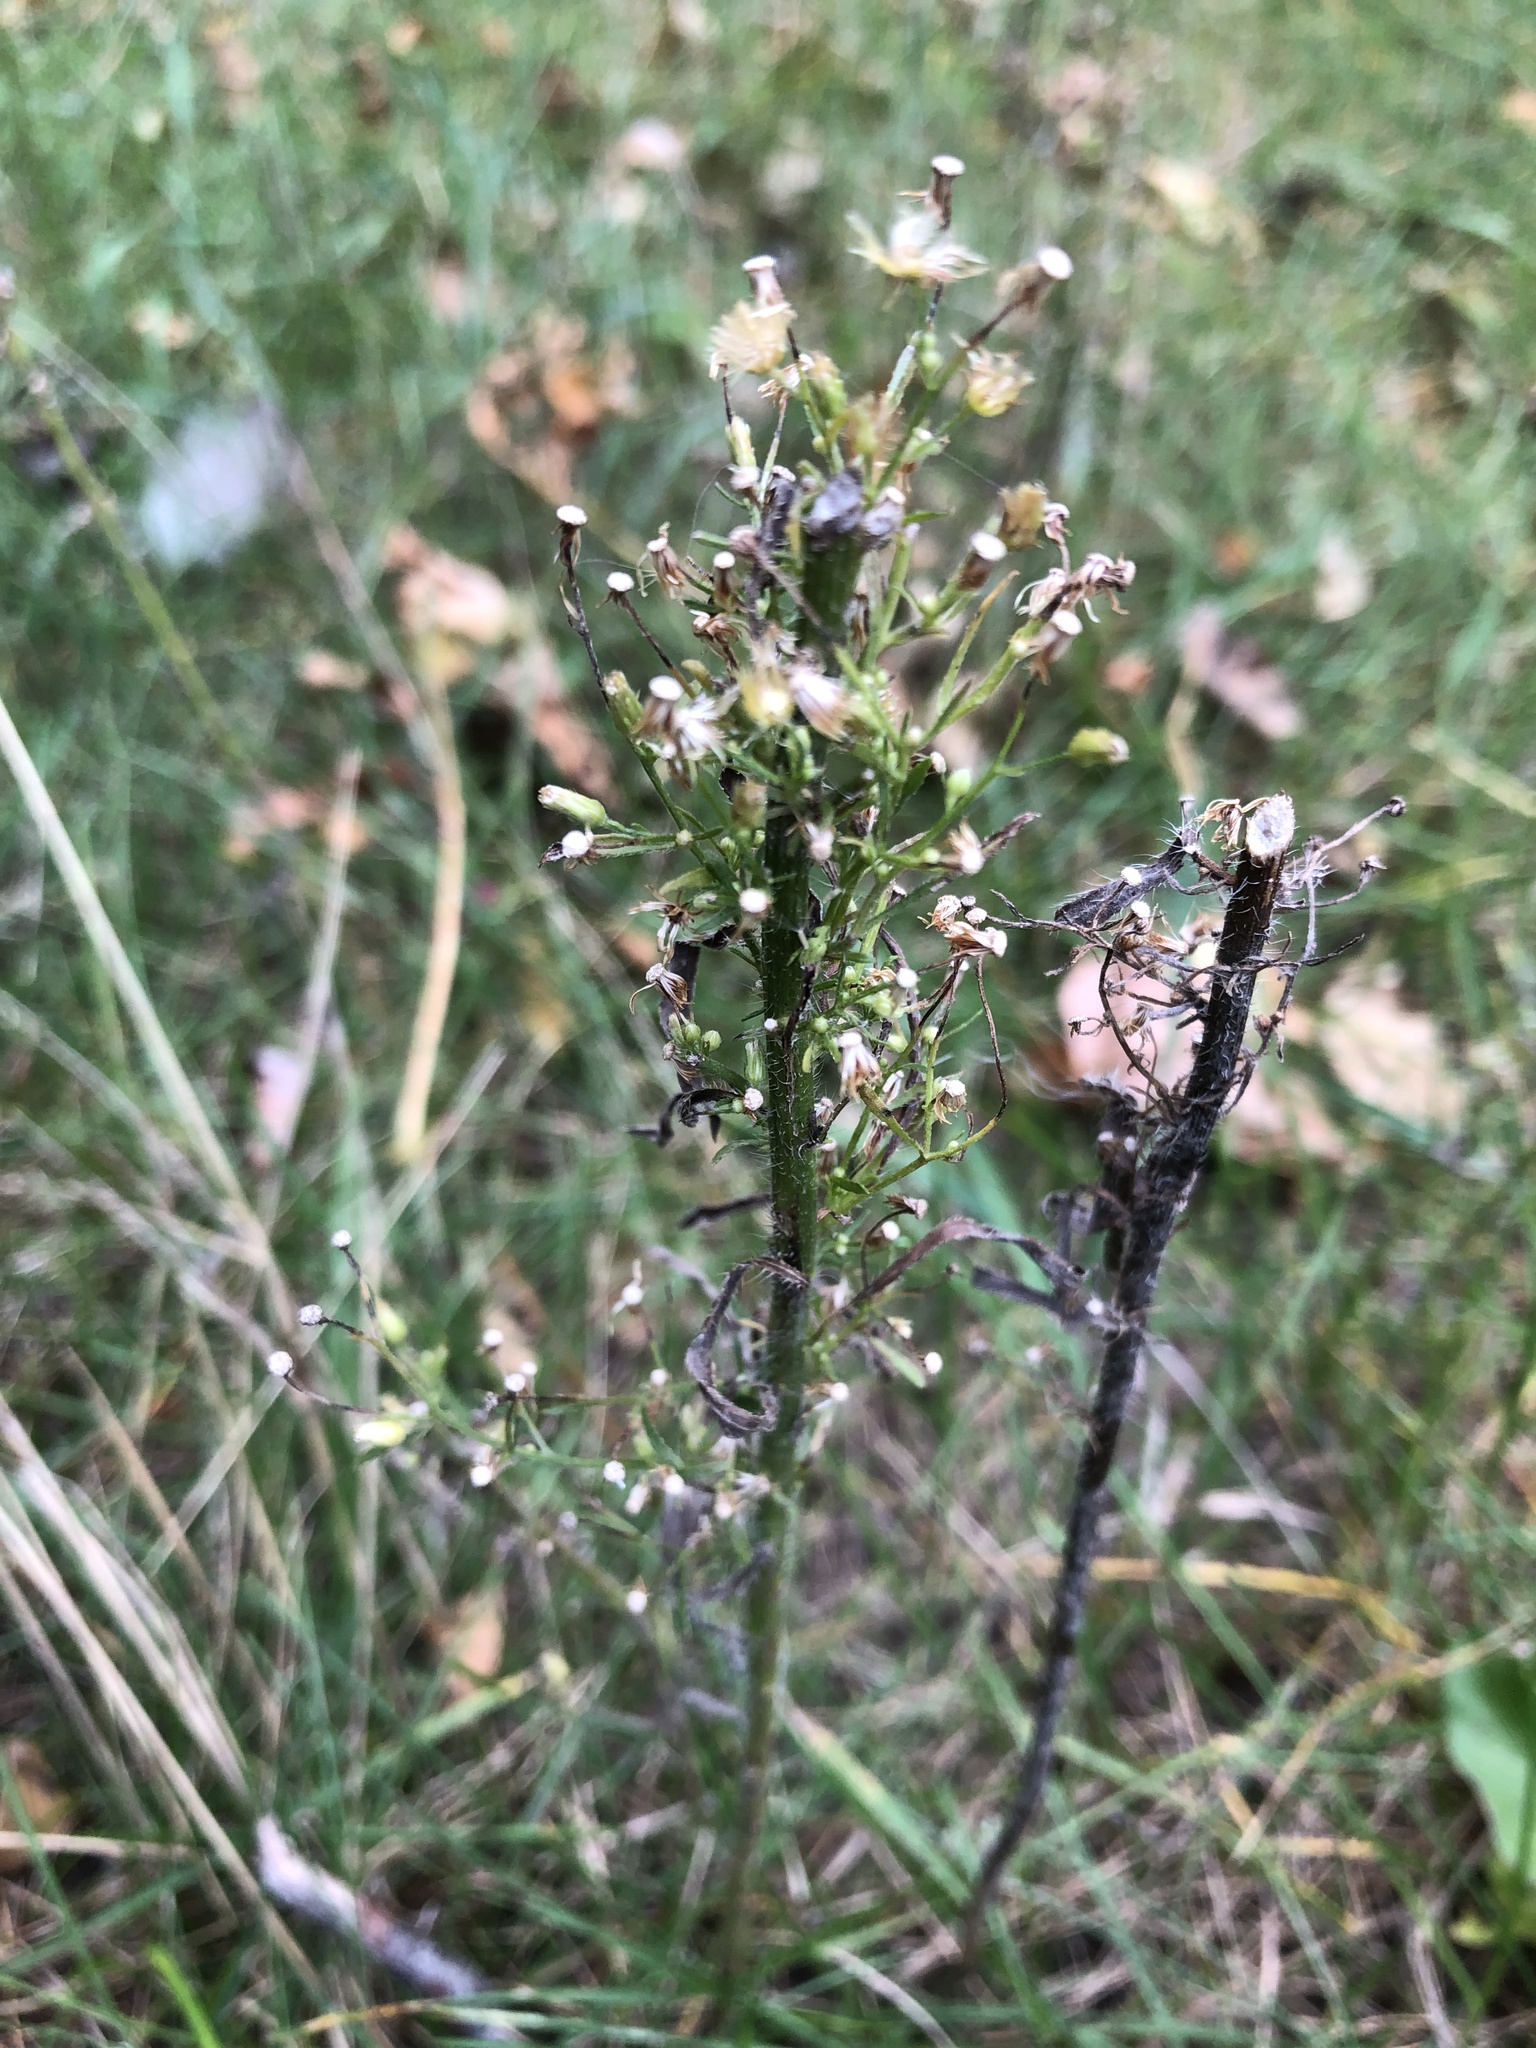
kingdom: Plantae
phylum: Tracheophyta
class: Magnoliopsida
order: Asterales
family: Asteraceae
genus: Erigeron
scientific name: Erigeron canadensis
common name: Canadian fleabane
